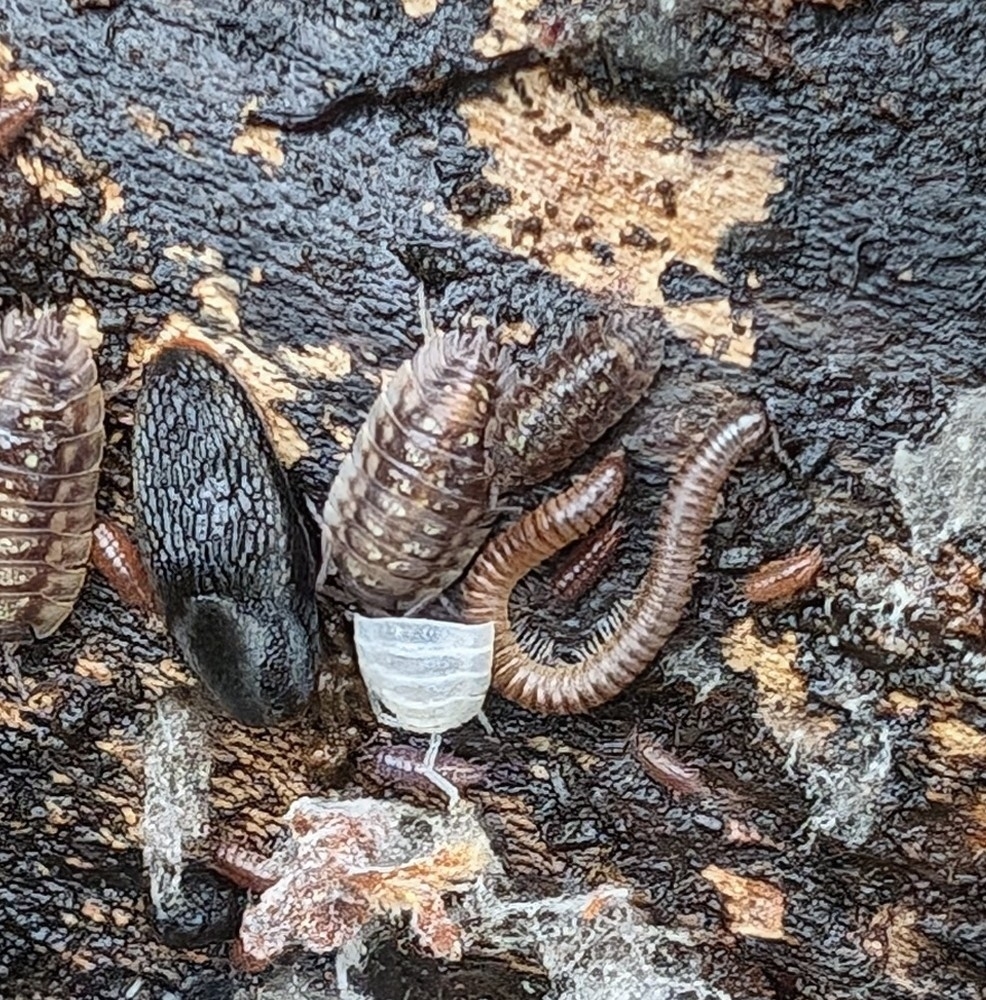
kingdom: Animalia
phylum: Arthropoda
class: Malacostraca
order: Isopoda
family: Oniscidae
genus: Oniscus
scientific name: Oniscus asellus
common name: Common shiny woodlouse
